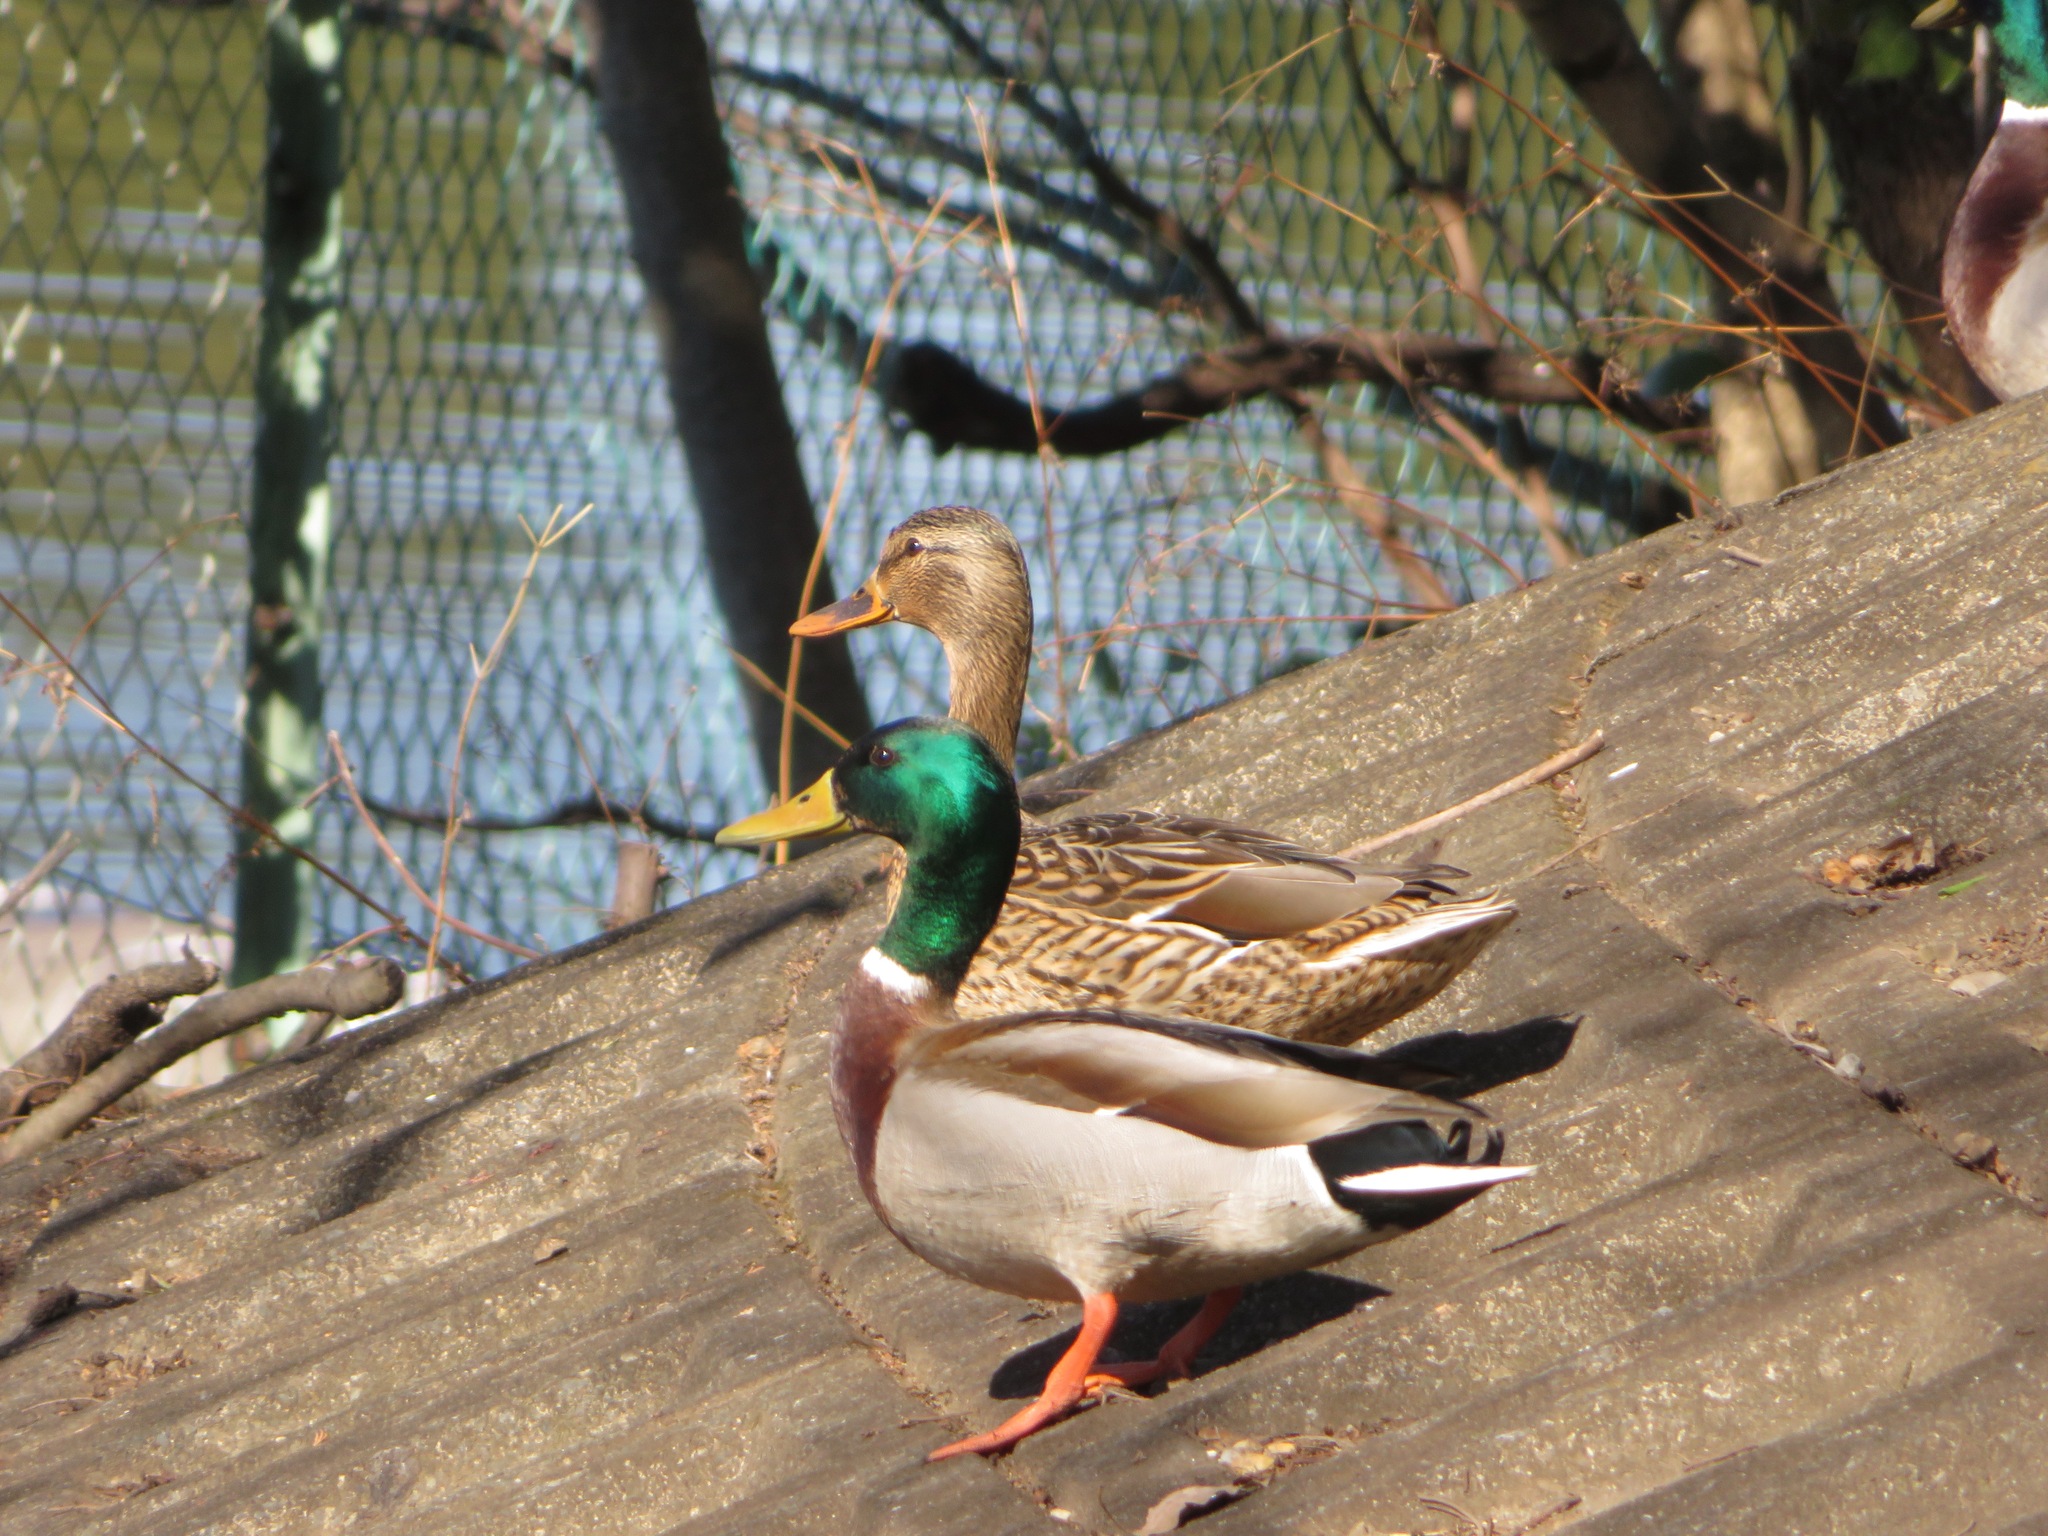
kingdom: Animalia
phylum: Chordata
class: Aves
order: Anseriformes
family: Anatidae
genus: Anas
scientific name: Anas platyrhynchos
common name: Mallard
